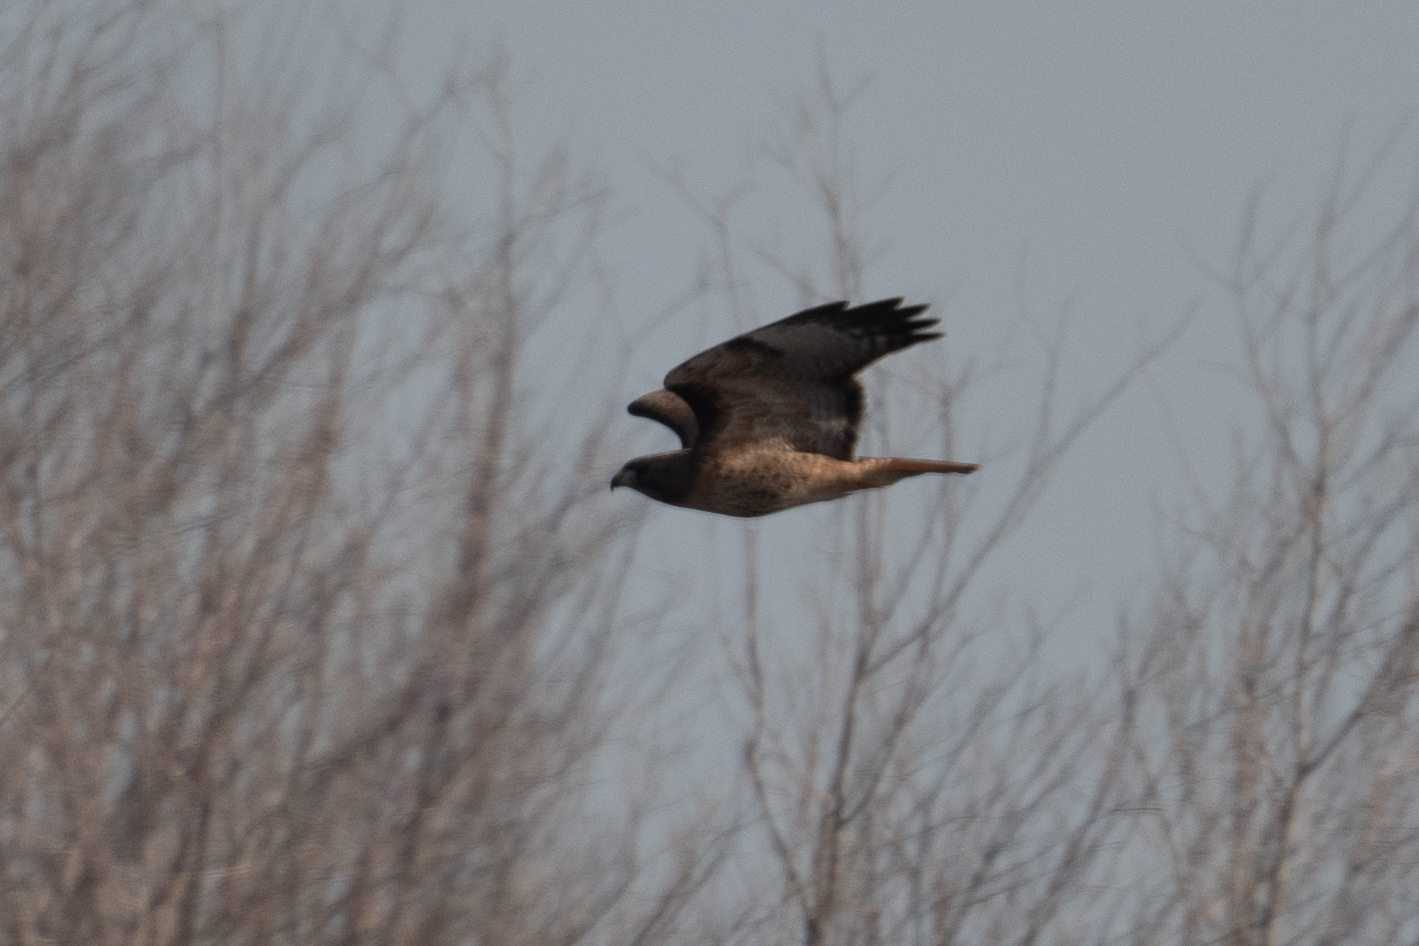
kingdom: Animalia
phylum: Chordata
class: Aves
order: Accipitriformes
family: Accipitridae
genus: Buteo
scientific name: Buteo jamaicensis
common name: Red-tailed hawk
